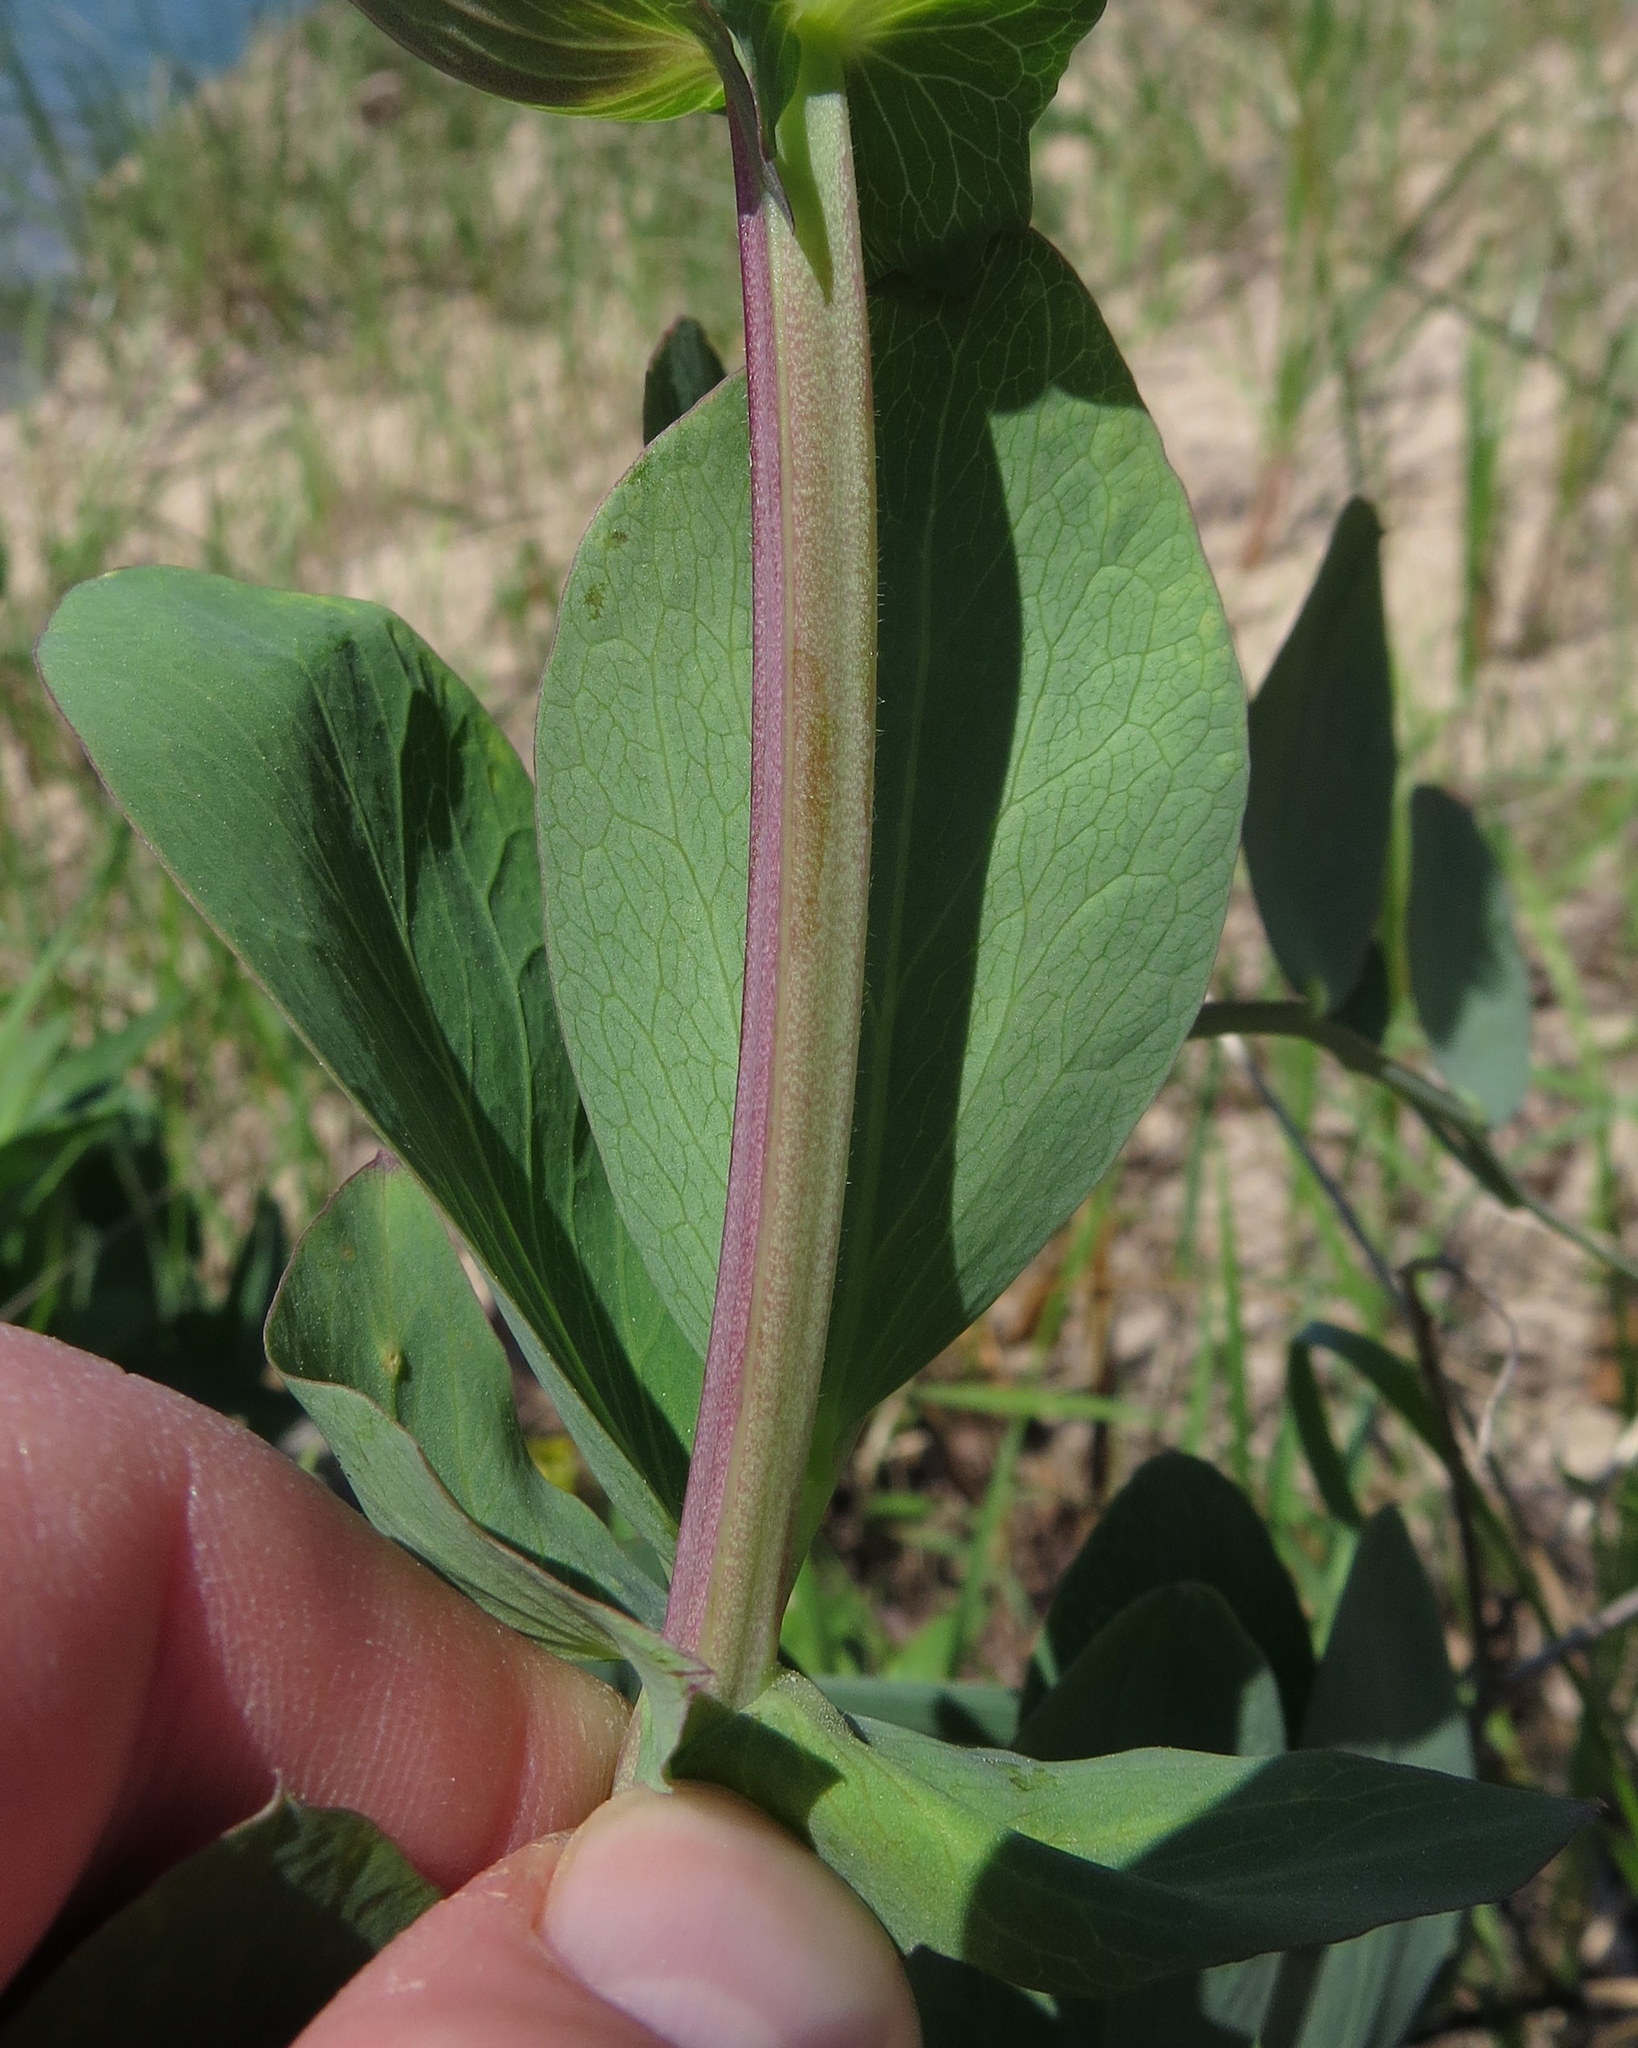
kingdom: Plantae
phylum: Tracheophyta
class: Magnoliopsida
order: Fabales
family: Fabaceae
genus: Lathyrus
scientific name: Lathyrus japonicus
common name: Sea pea
